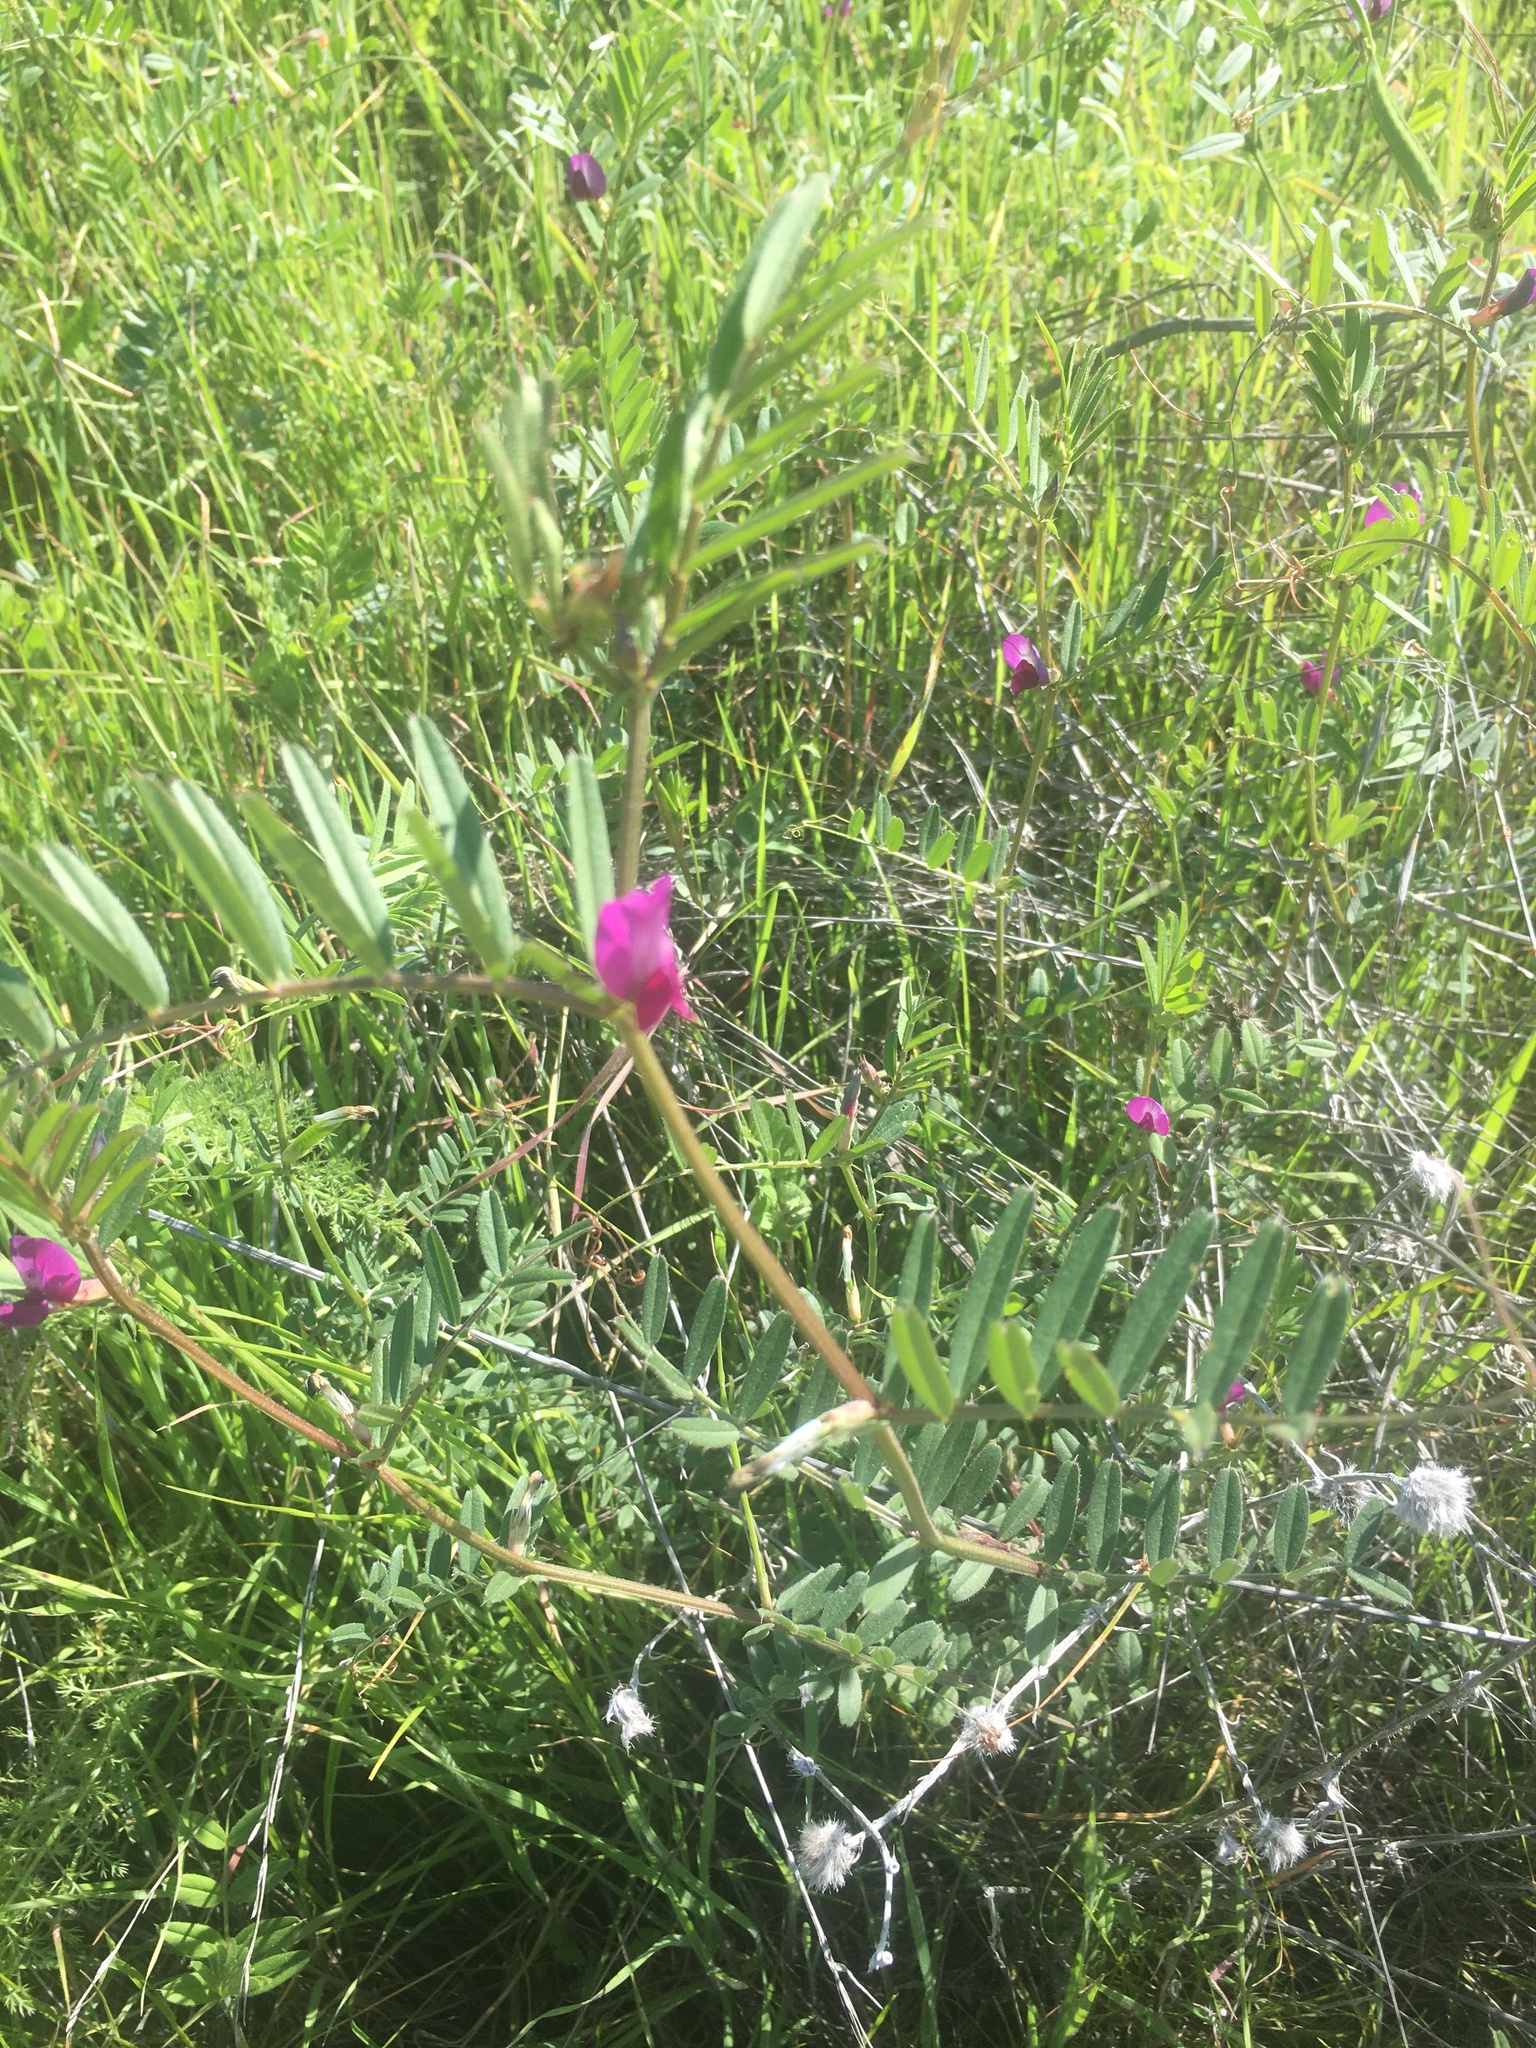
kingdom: Plantae
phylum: Tracheophyta
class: Magnoliopsida
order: Fabales
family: Fabaceae
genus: Vicia
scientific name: Vicia sativa
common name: Garden vetch
